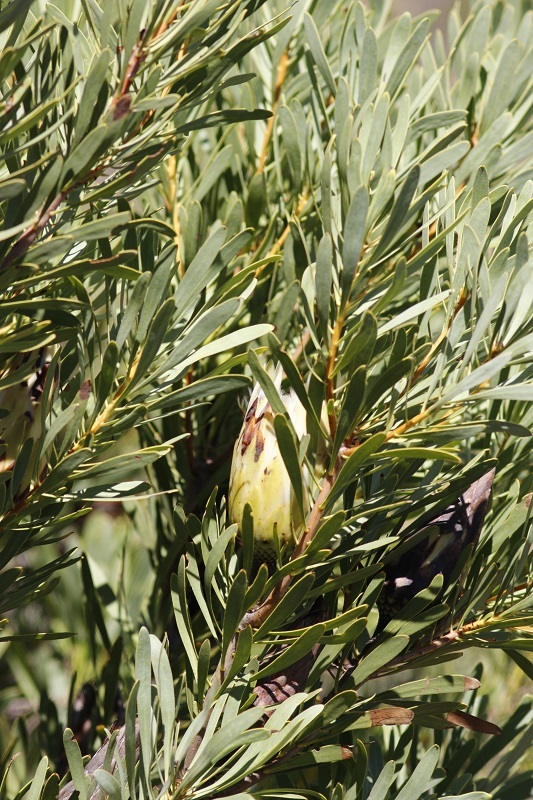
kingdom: Plantae
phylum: Tracheophyta
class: Magnoliopsida
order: Proteales
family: Proteaceae
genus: Protea
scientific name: Protea repens
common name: Sugarbush
